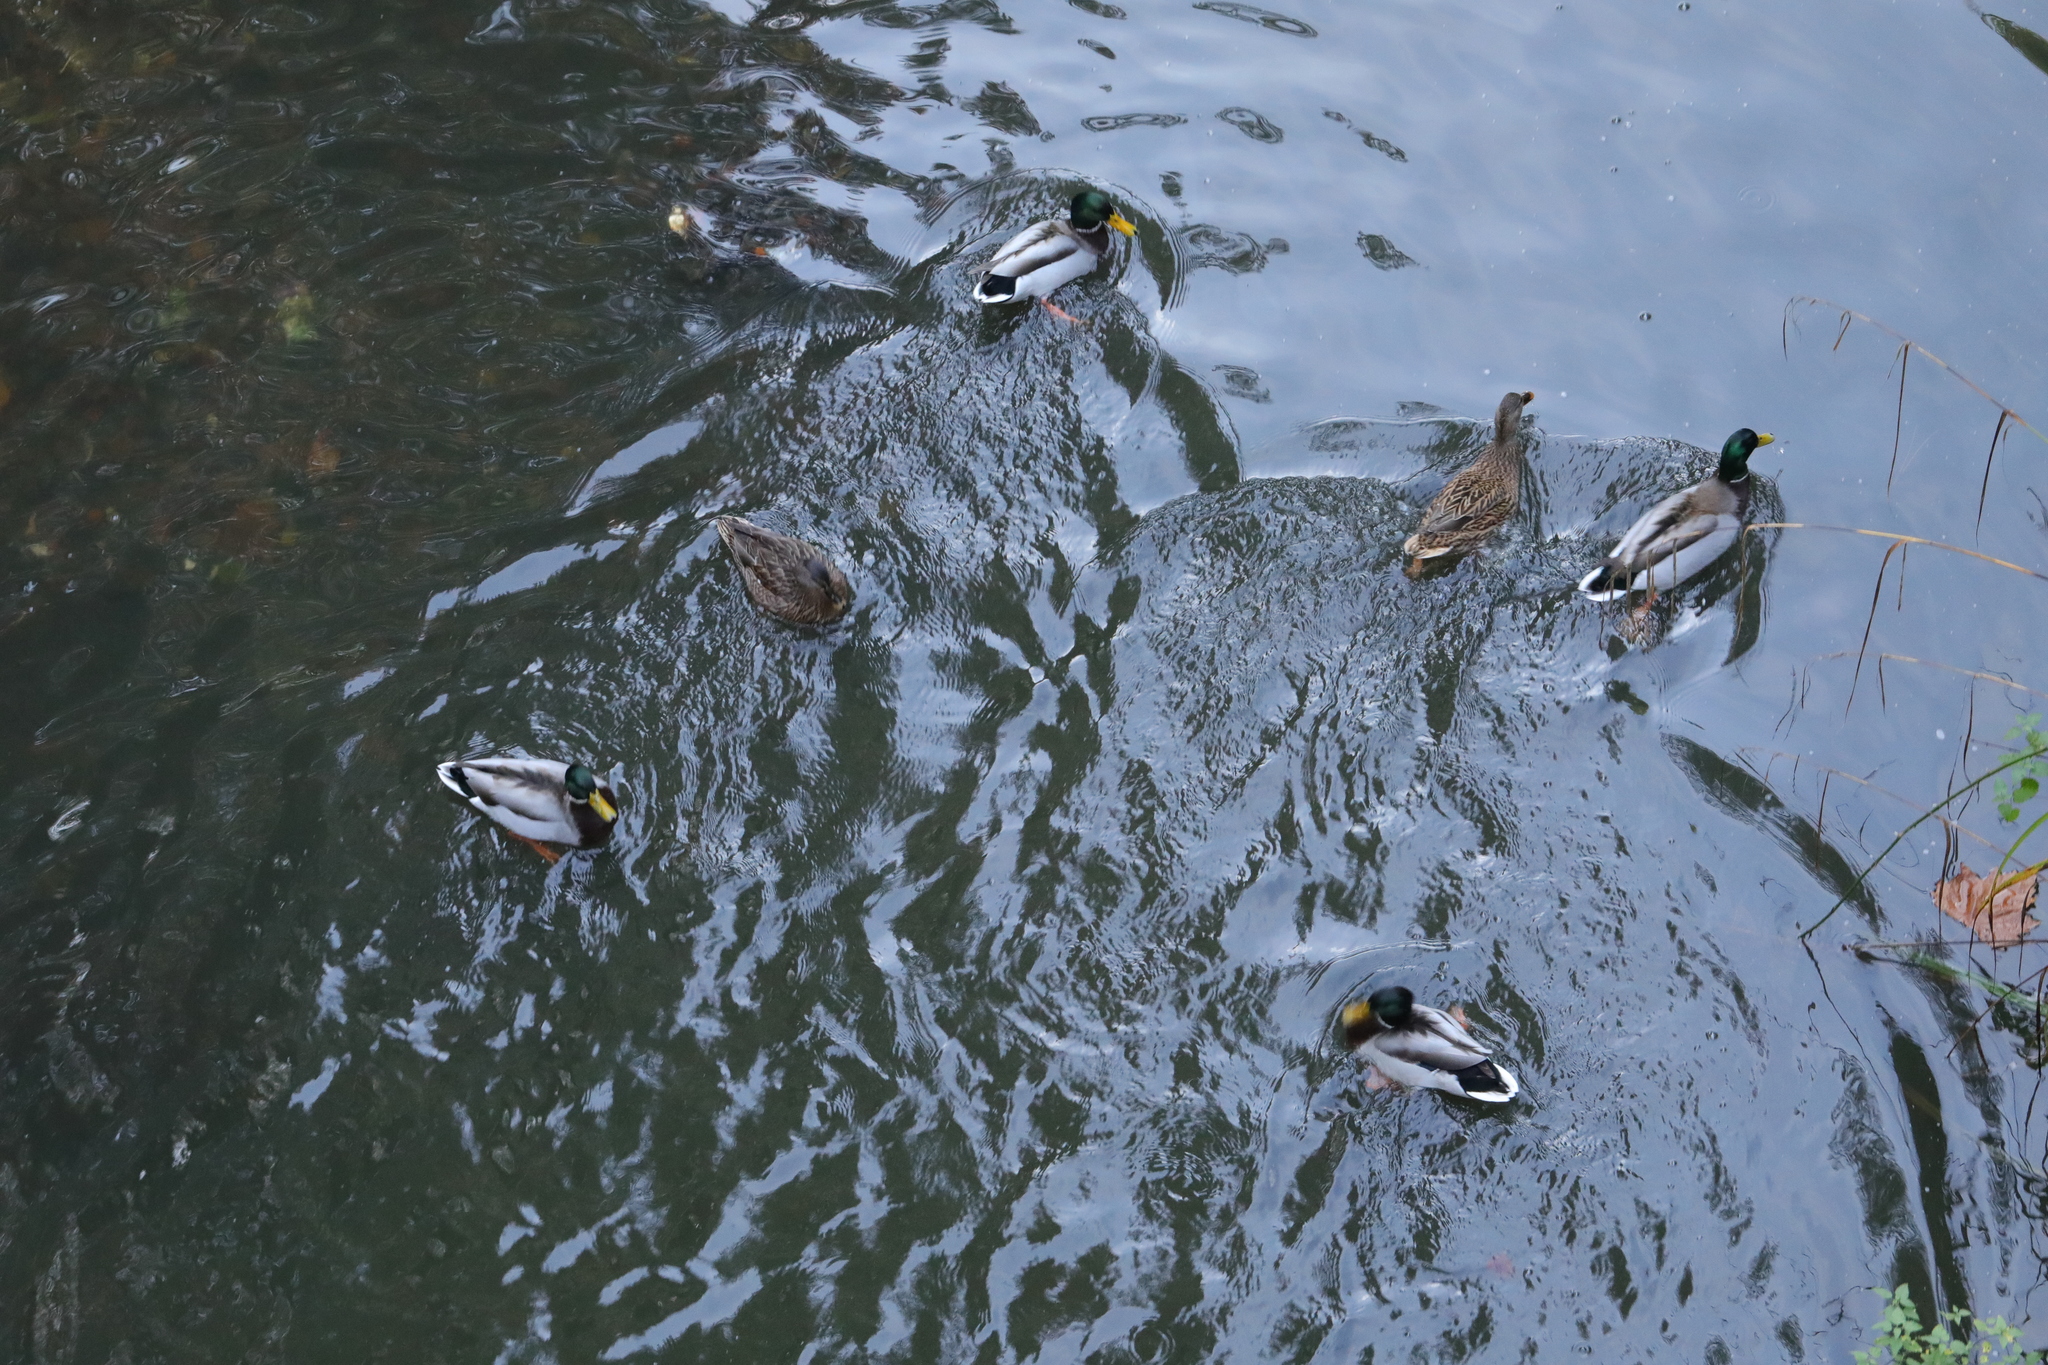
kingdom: Animalia
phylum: Chordata
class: Aves
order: Anseriformes
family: Anatidae
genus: Anas
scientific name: Anas platyrhynchos
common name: Mallard
